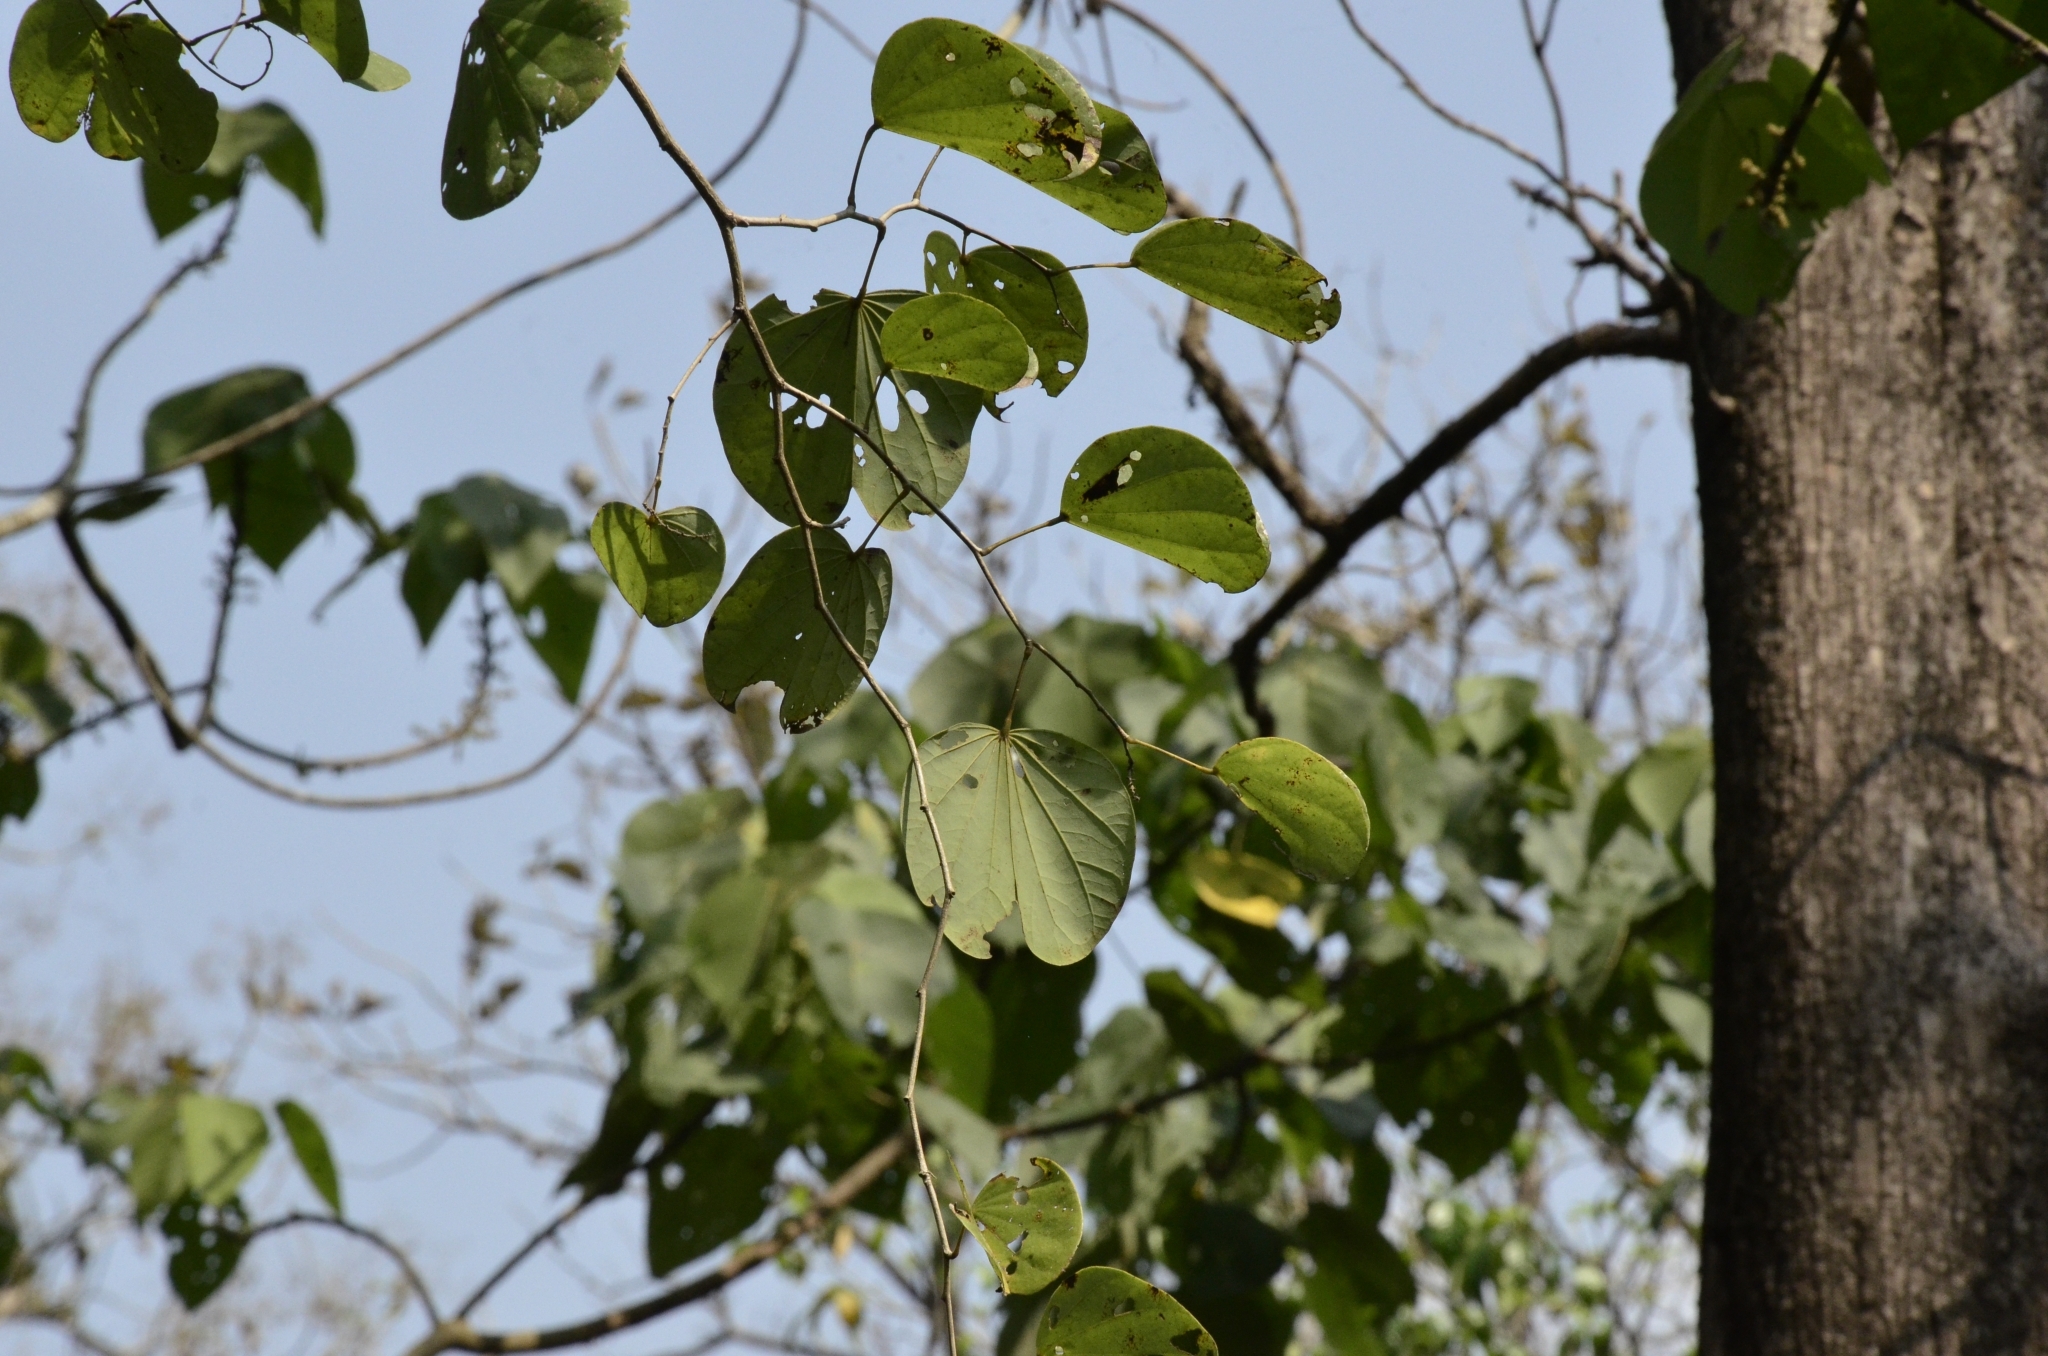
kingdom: Plantae
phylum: Tracheophyta
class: Magnoliopsida
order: Fabales
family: Fabaceae
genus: Bauhinia
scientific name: Bauhinia purpurea
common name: Butterfly-tree
